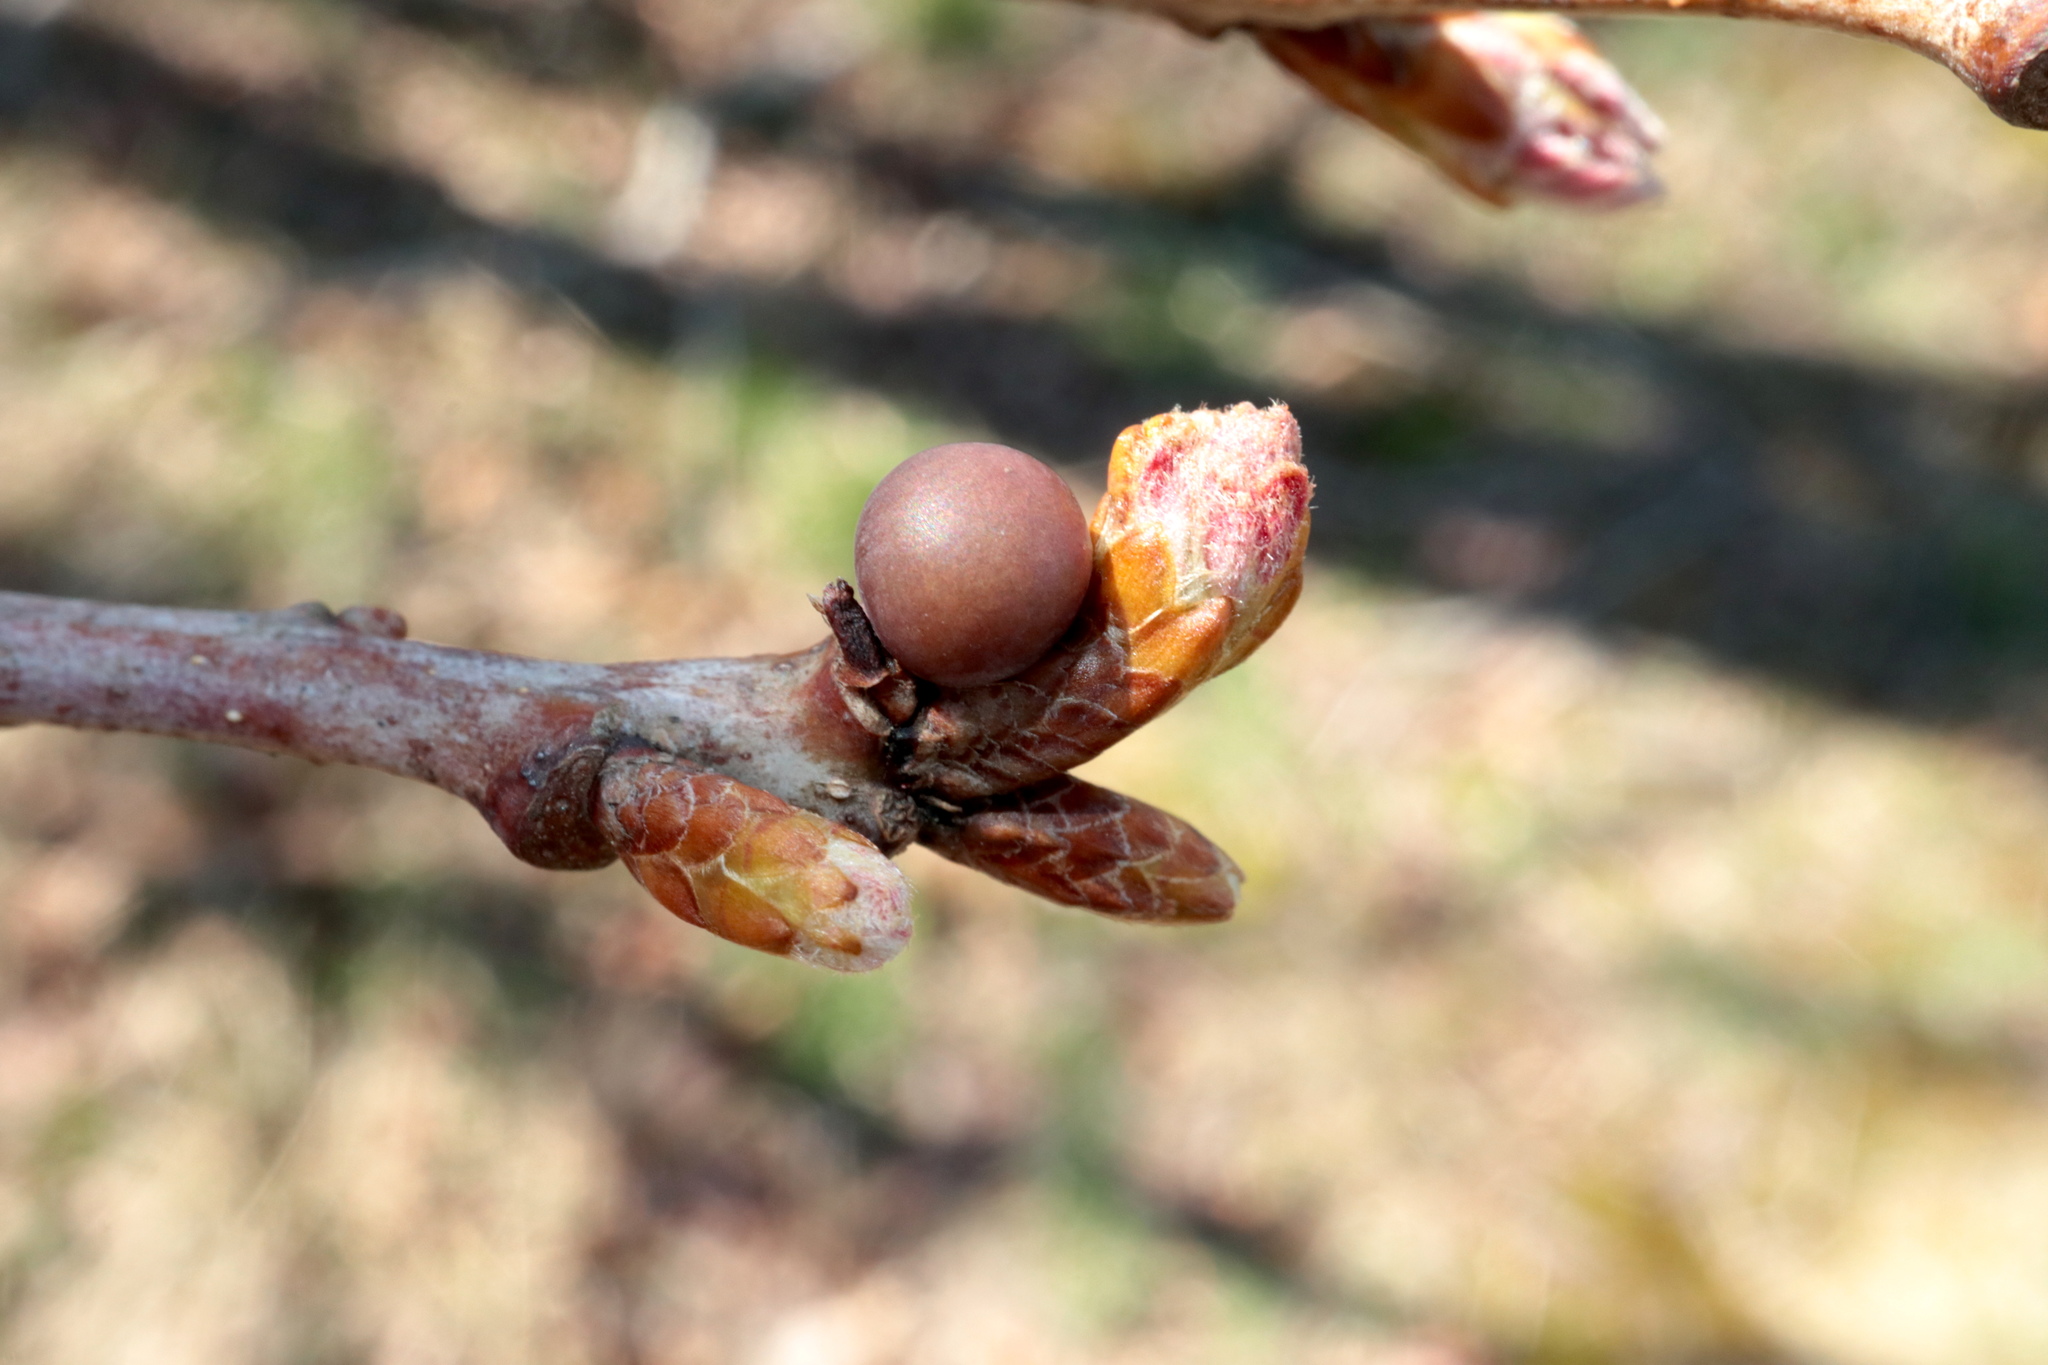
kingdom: Animalia
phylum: Arthropoda
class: Insecta
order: Hymenoptera
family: Cynipidae
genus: Neuroterus
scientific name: Neuroterus
